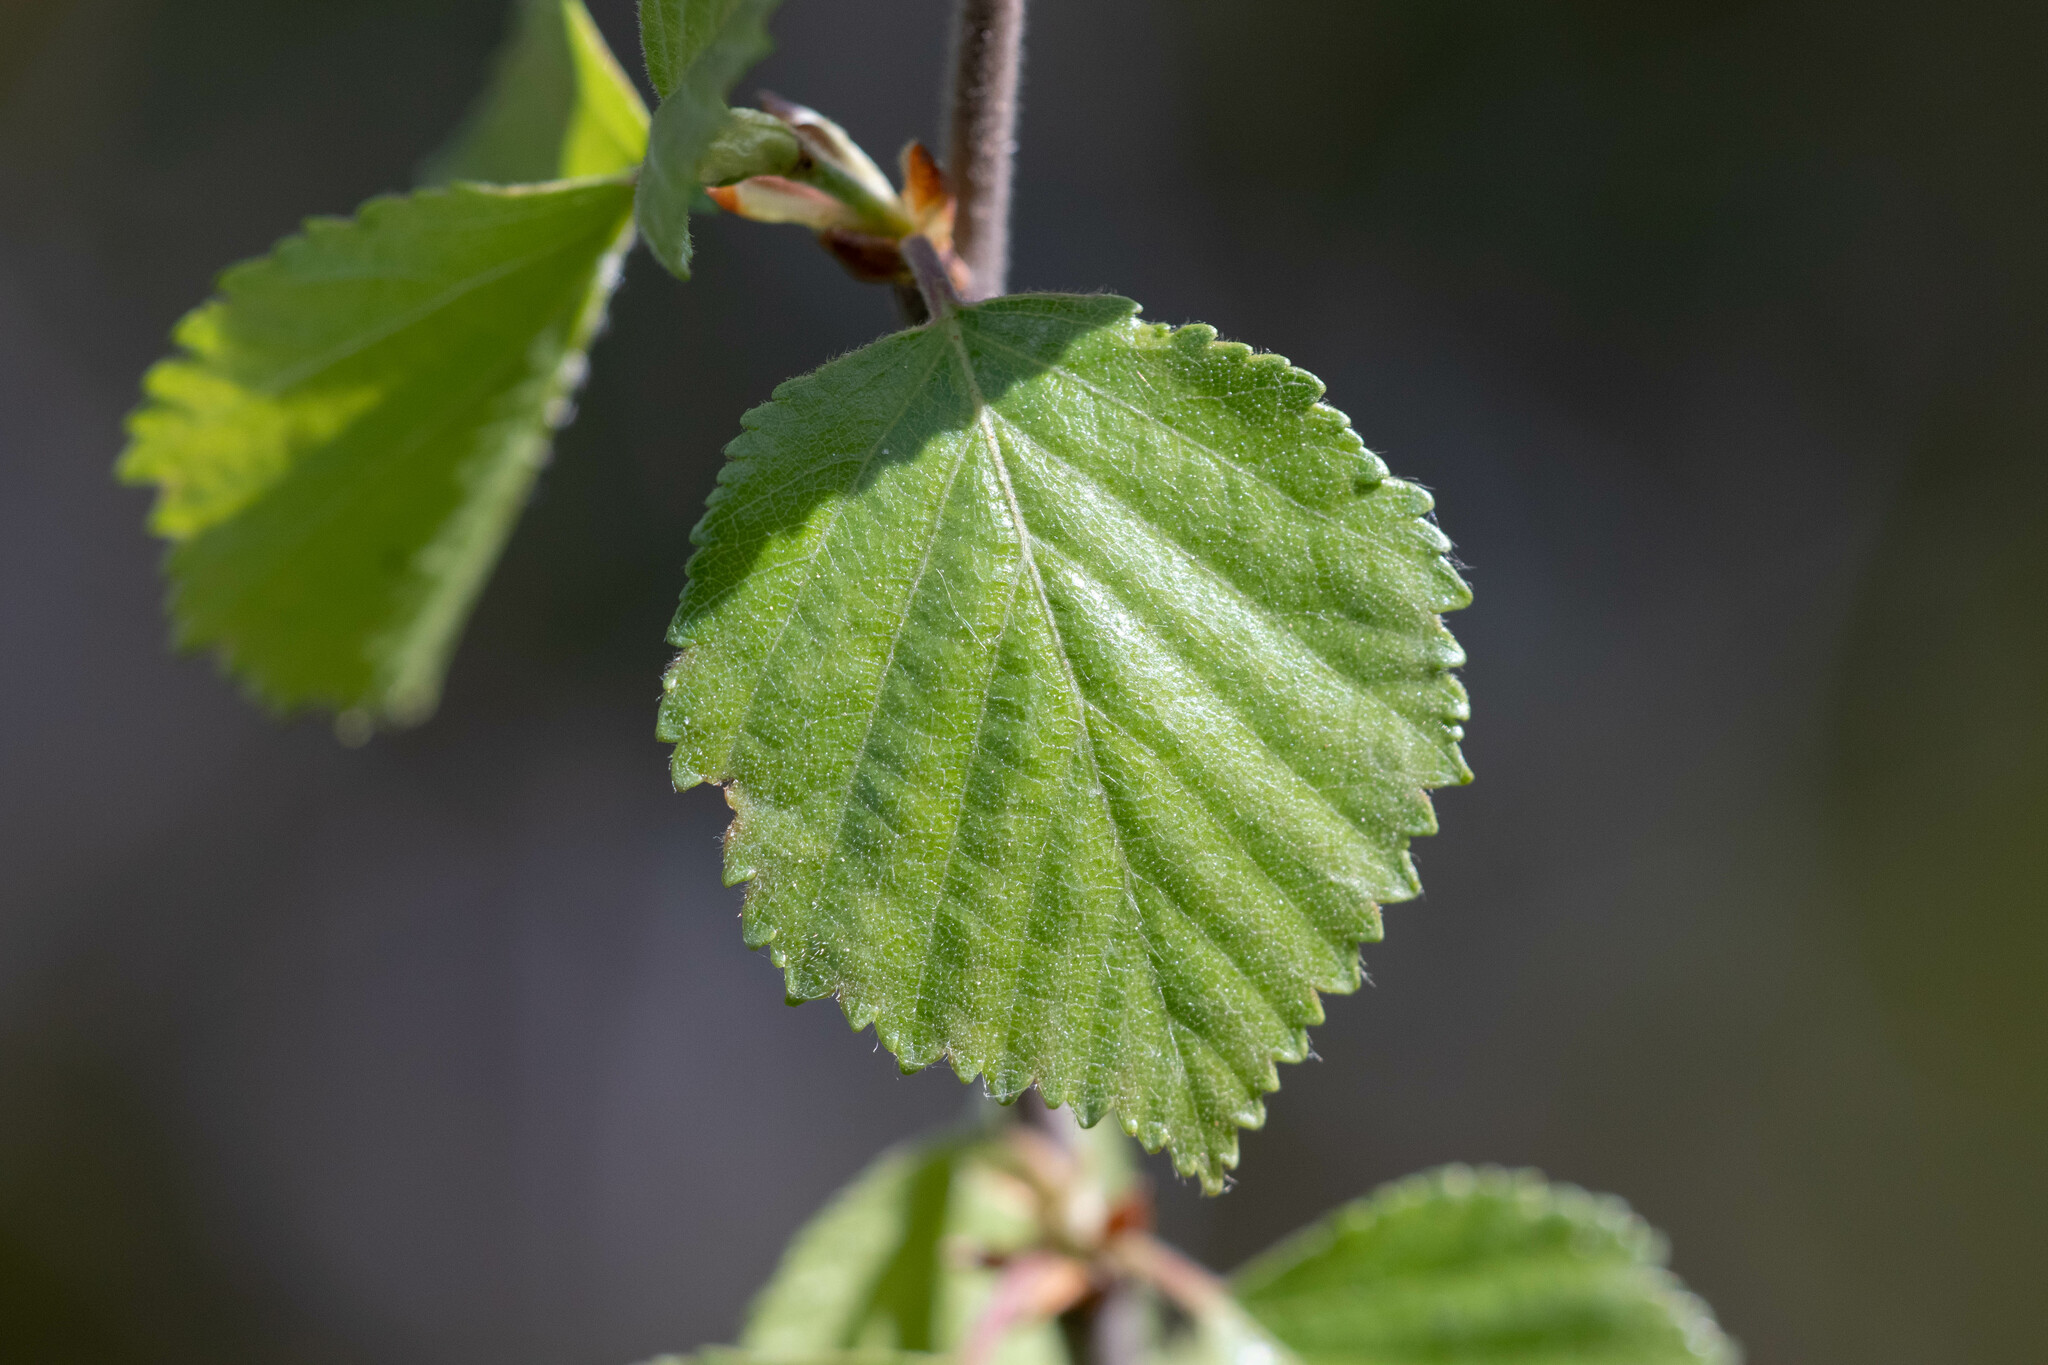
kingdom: Plantae
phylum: Tracheophyta
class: Magnoliopsida
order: Fagales
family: Betulaceae
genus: Betula
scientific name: Betula pubescens
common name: Downy birch
